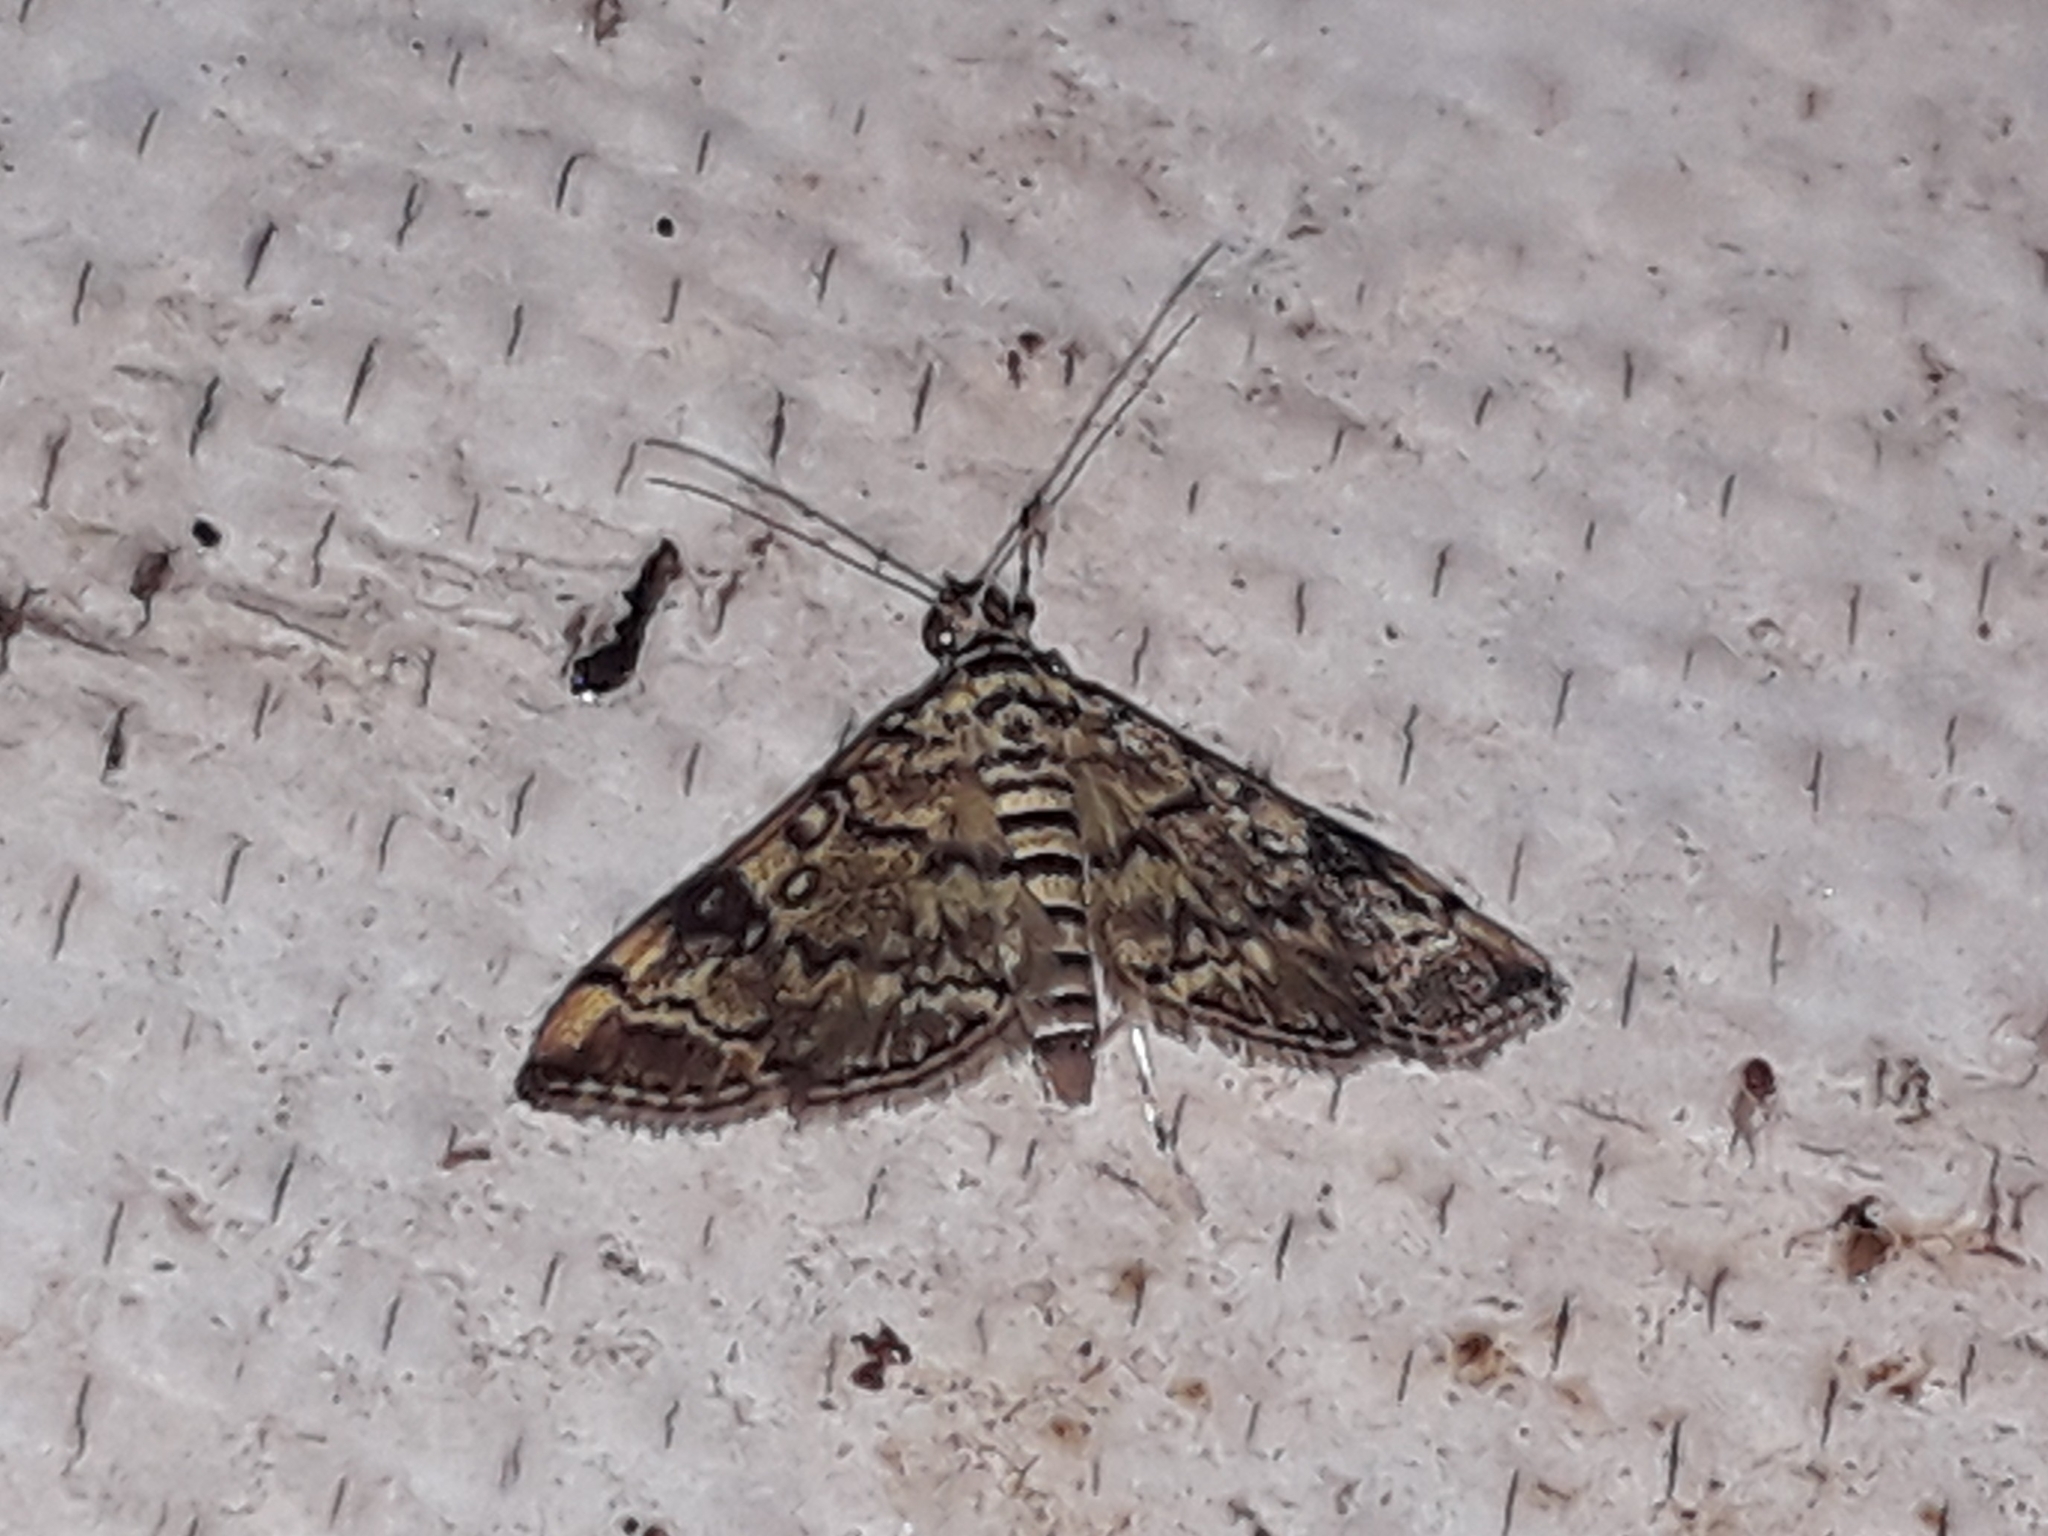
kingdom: Animalia
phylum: Arthropoda
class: Insecta
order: Lepidoptera
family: Crambidae
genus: Apogeshna
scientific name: Apogeshna stenialis
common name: Checkered apogeshna moth
